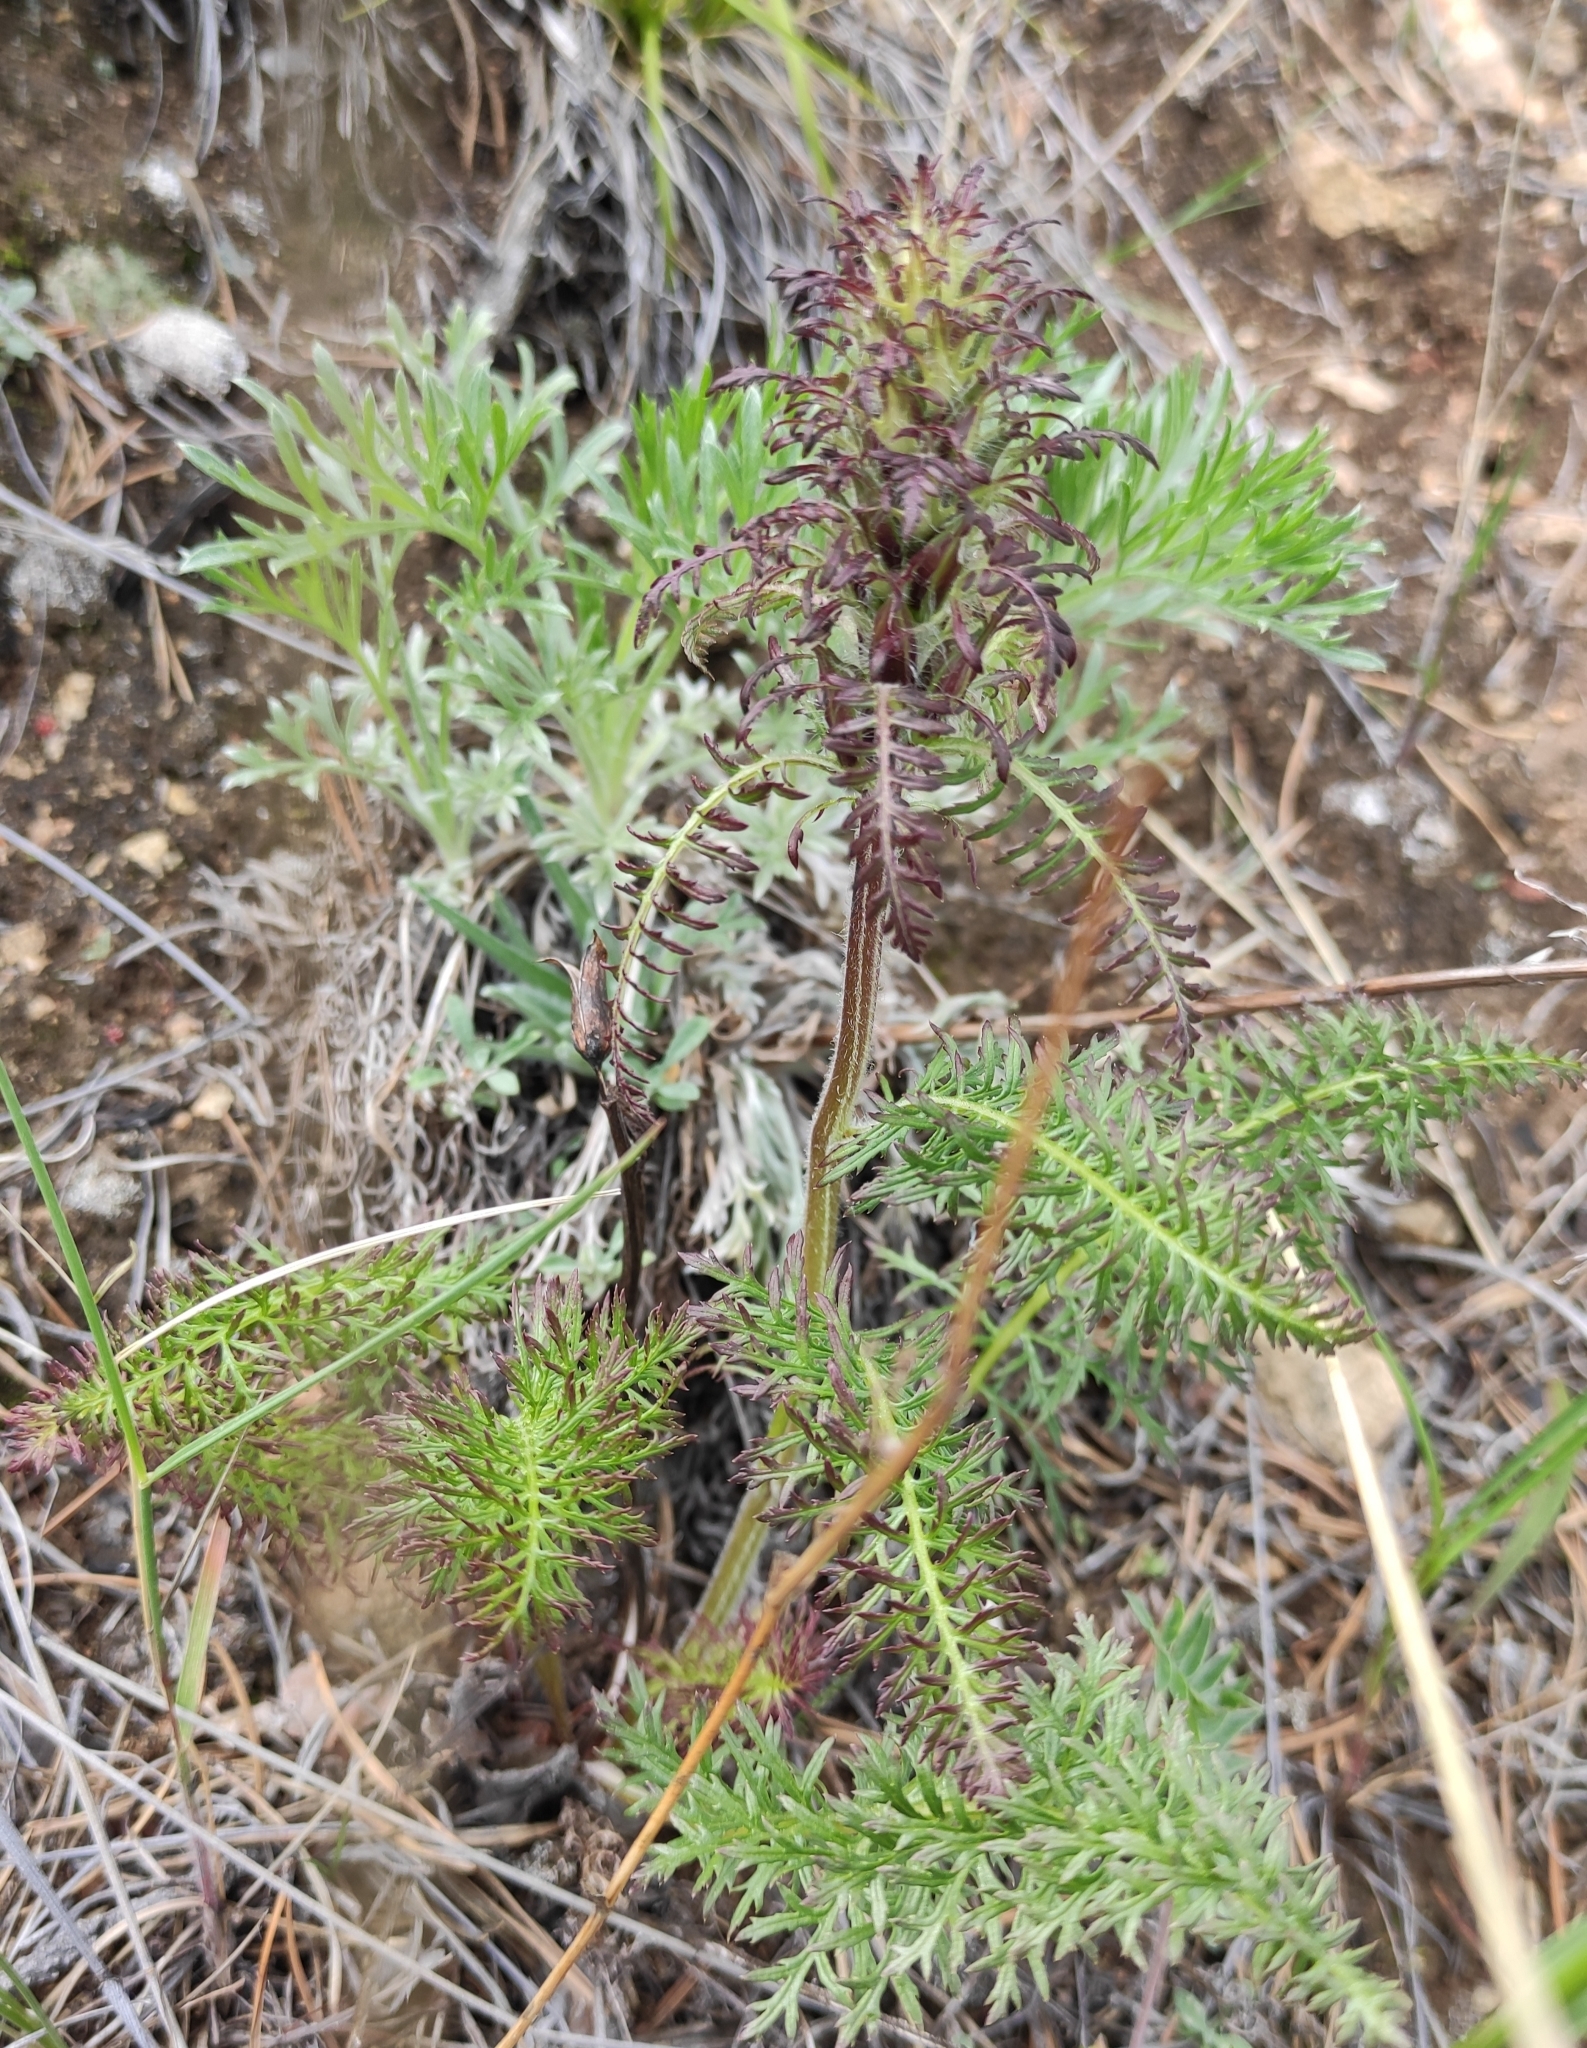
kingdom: Plantae
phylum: Tracheophyta
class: Magnoliopsida
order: Lamiales
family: Orobanchaceae
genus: Pedicularis
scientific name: Pedicularis rubens
